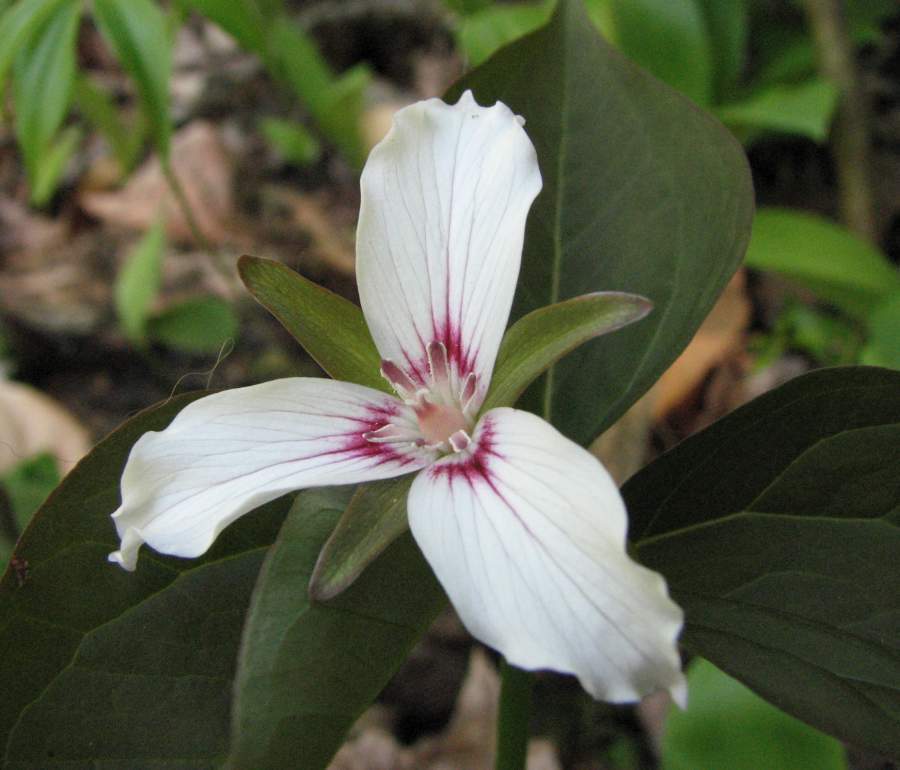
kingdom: Plantae
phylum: Tracheophyta
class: Liliopsida
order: Liliales
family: Melanthiaceae
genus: Trillium
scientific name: Trillium undulatum
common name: Paint trillium
